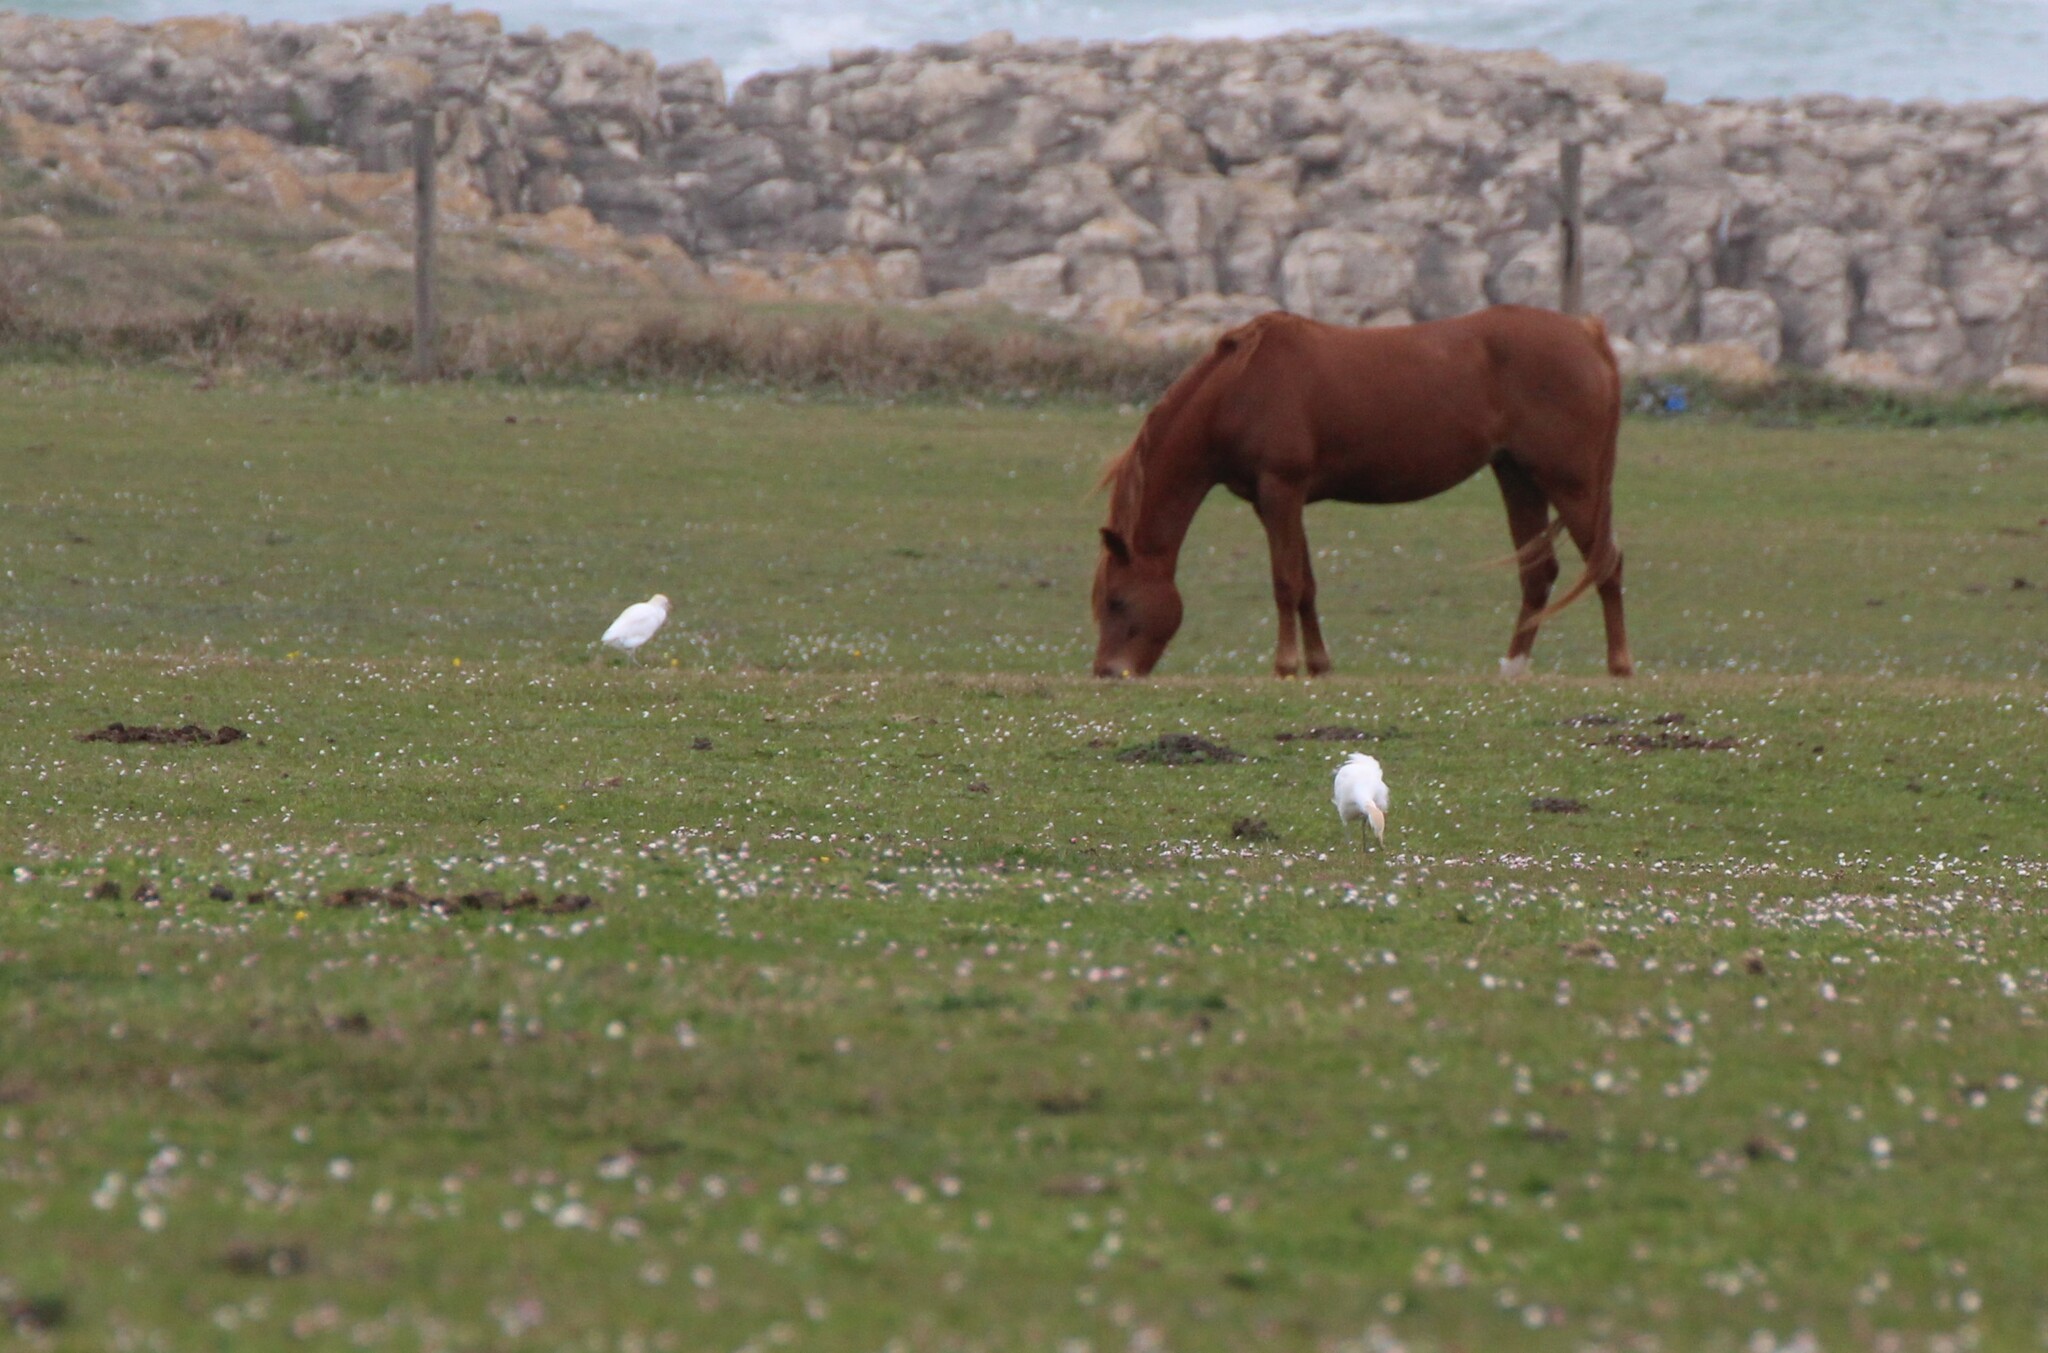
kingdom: Animalia
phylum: Chordata
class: Aves
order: Pelecaniformes
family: Ardeidae
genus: Bubulcus
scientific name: Bubulcus ibis
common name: Cattle egret
